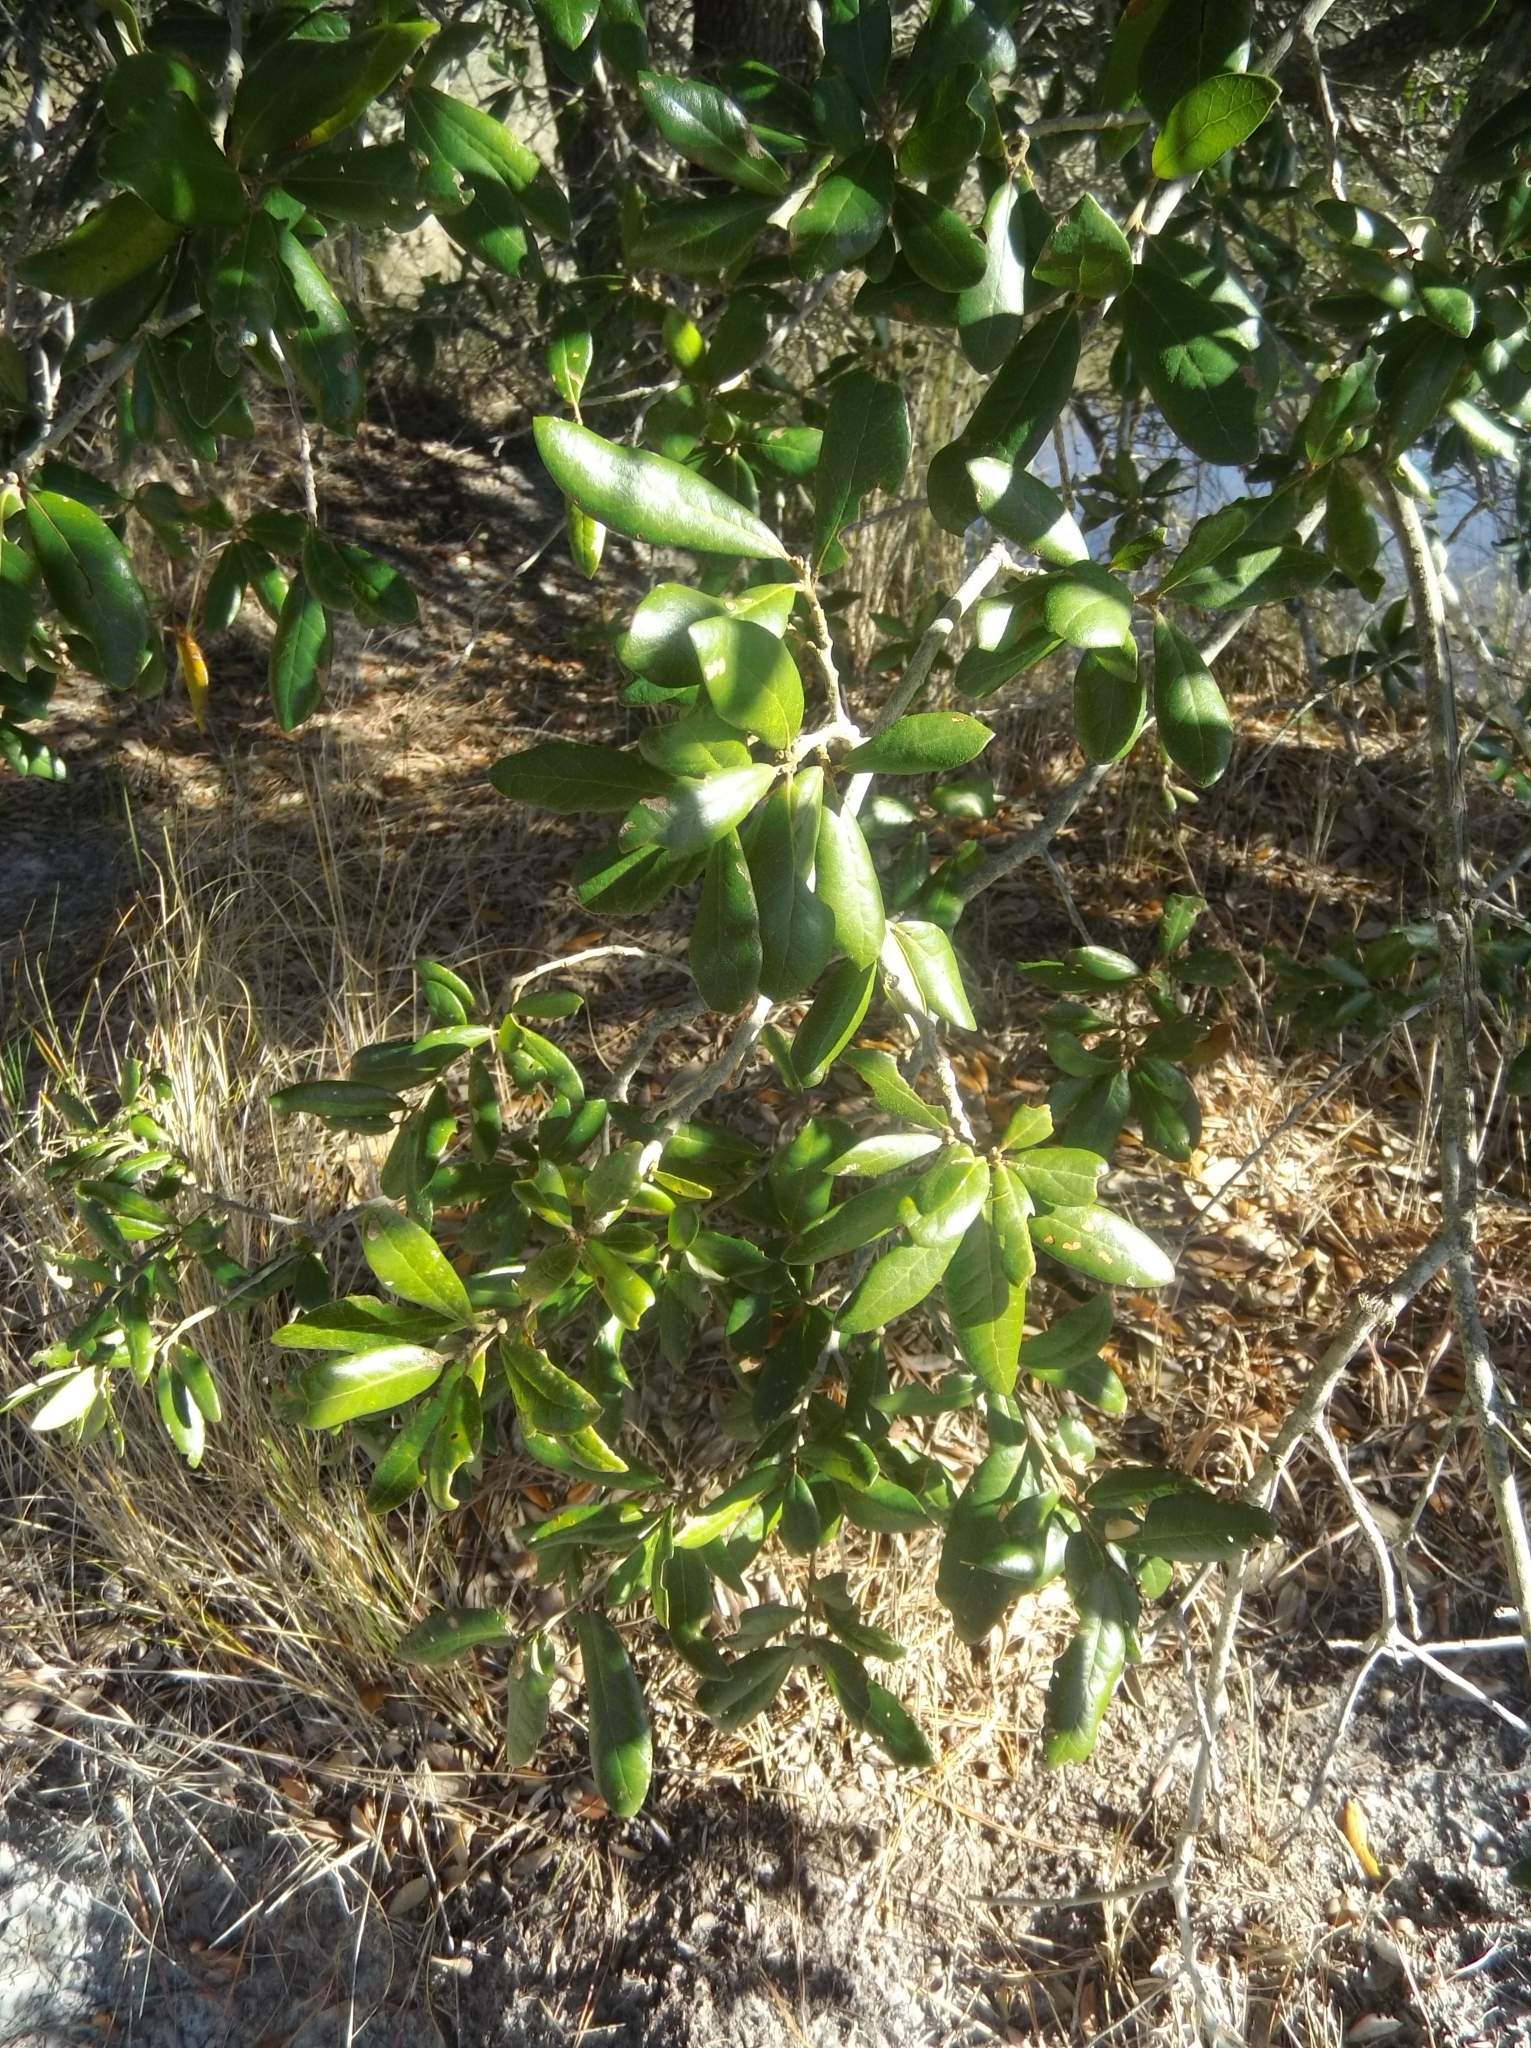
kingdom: Plantae
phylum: Tracheophyta
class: Magnoliopsida
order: Fagales
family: Fagaceae
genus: Quercus
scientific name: Quercus virginiana
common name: Southern live oak
